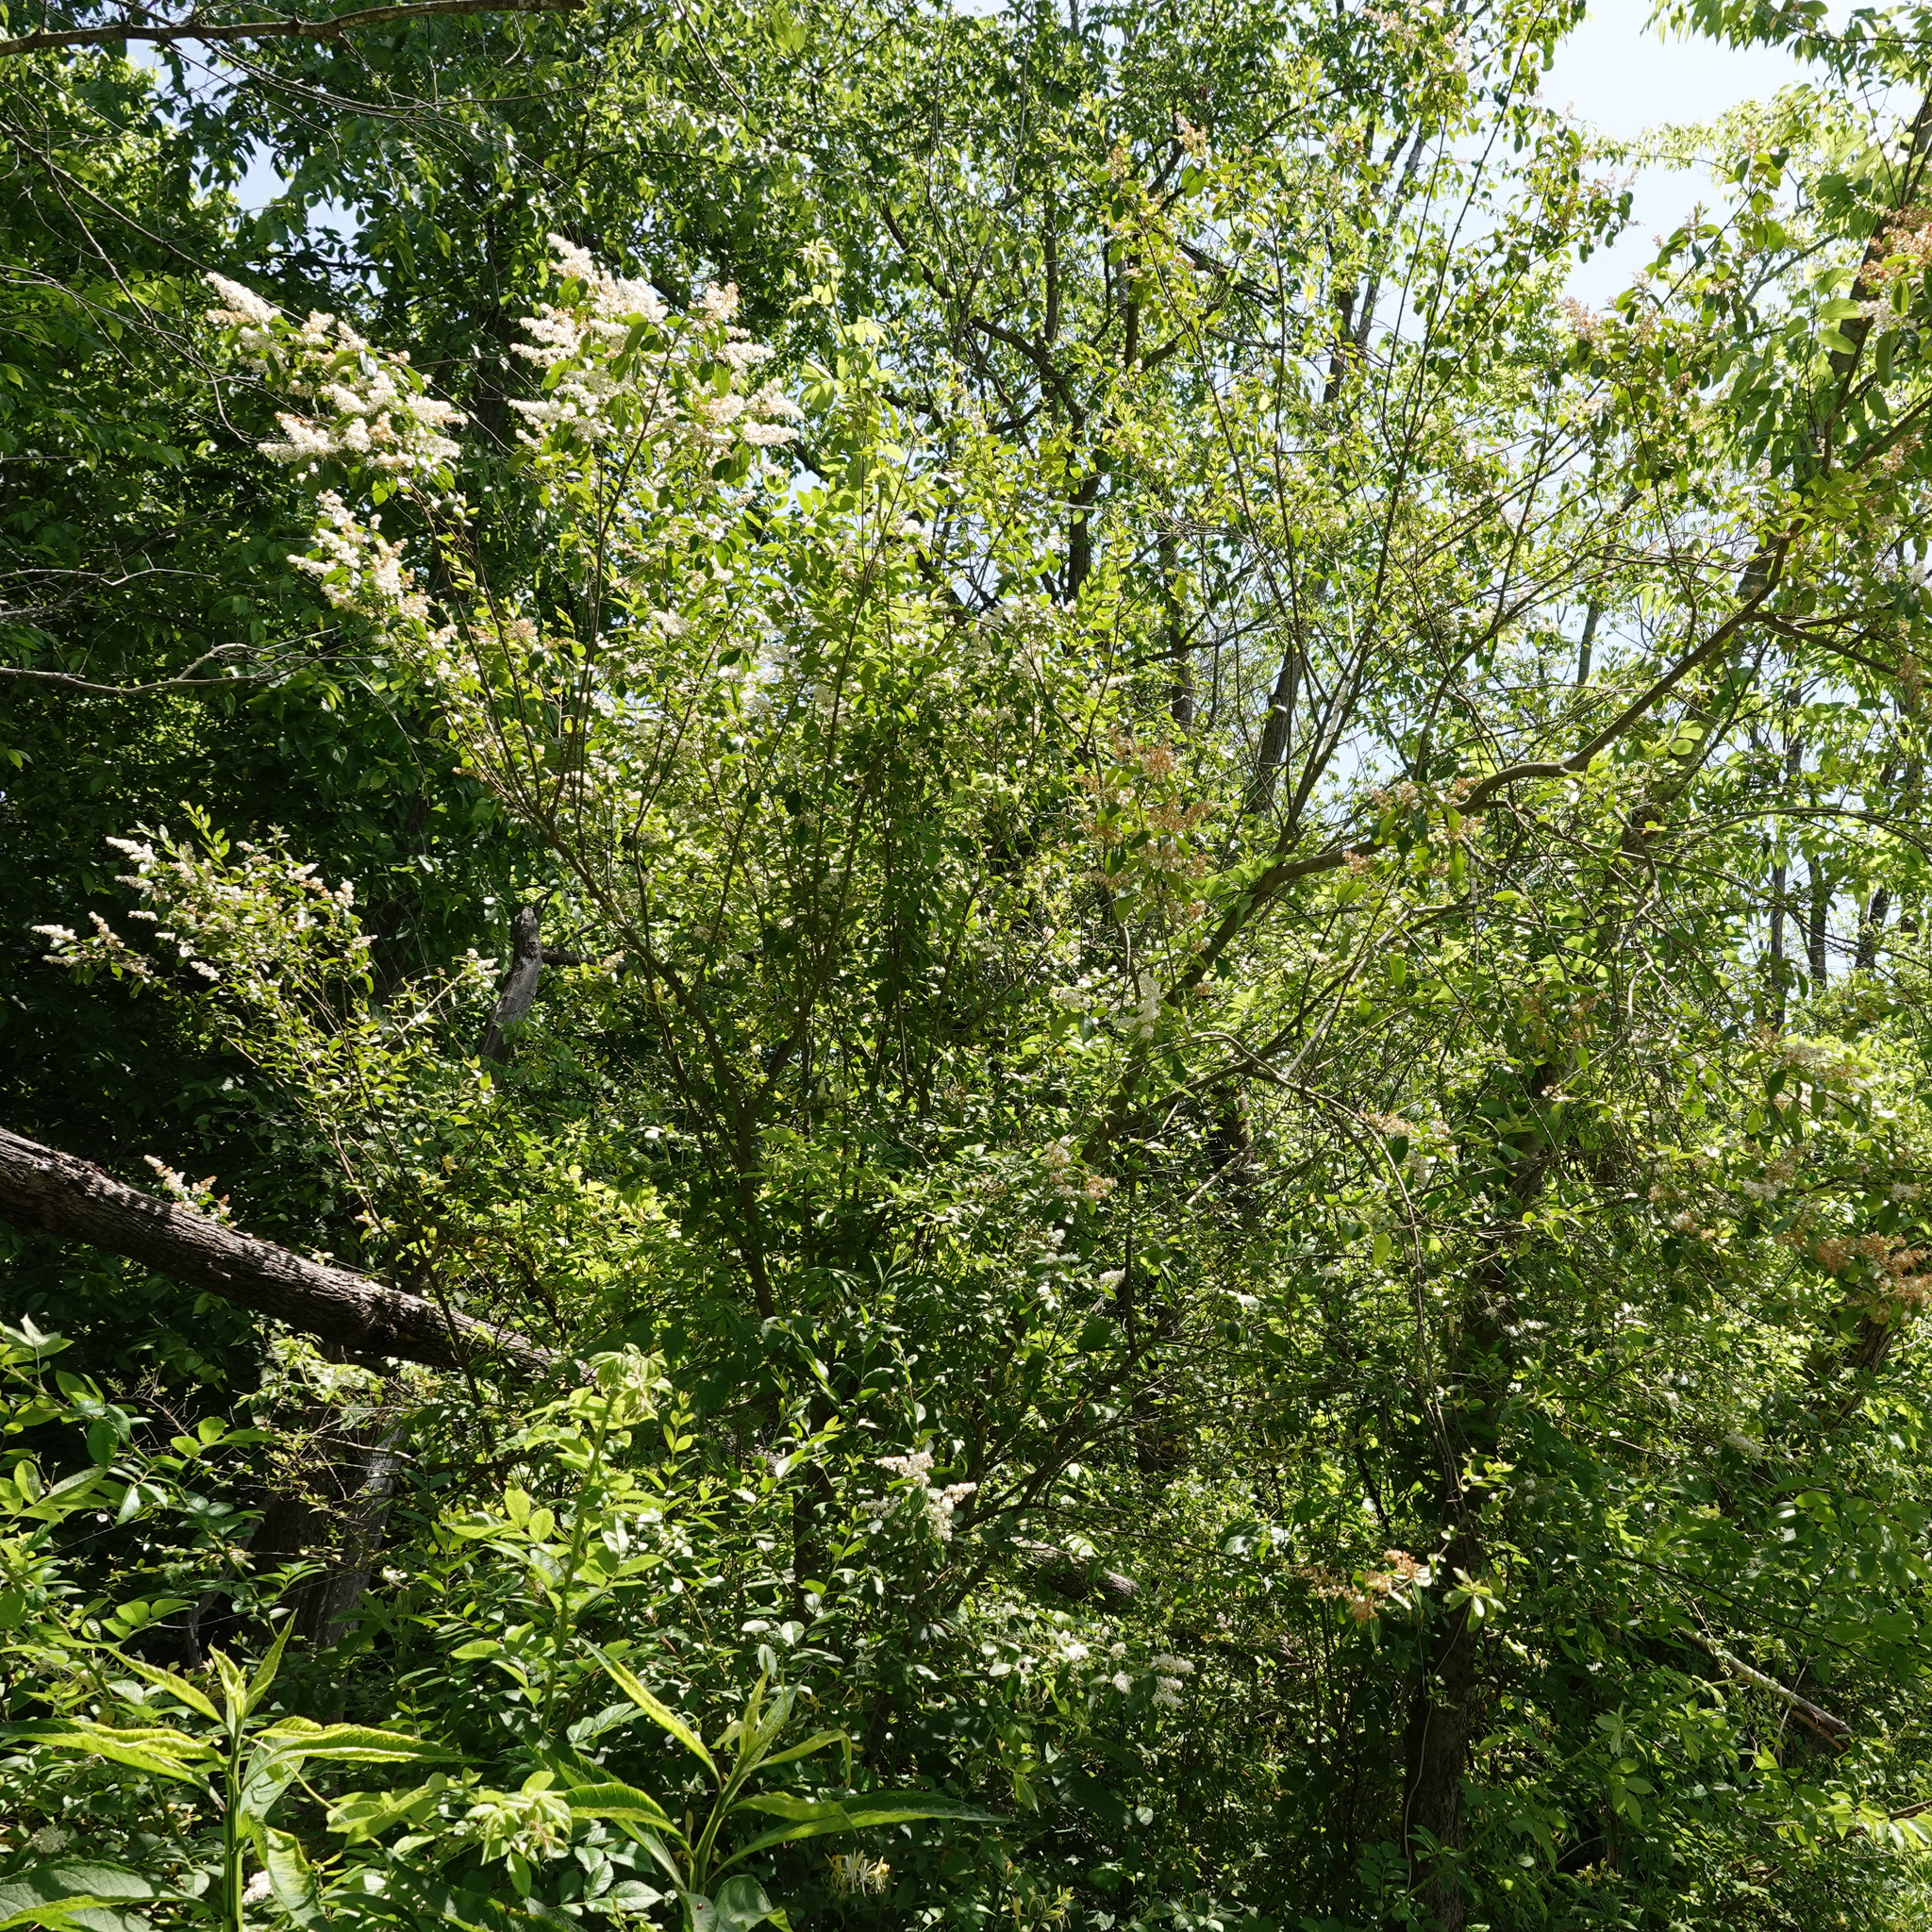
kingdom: Plantae
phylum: Tracheophyta
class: Magnoliopsida
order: Lamiales
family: Oleaceae
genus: Ligustrum
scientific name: Ligustrum sinense
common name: Chinese privet
